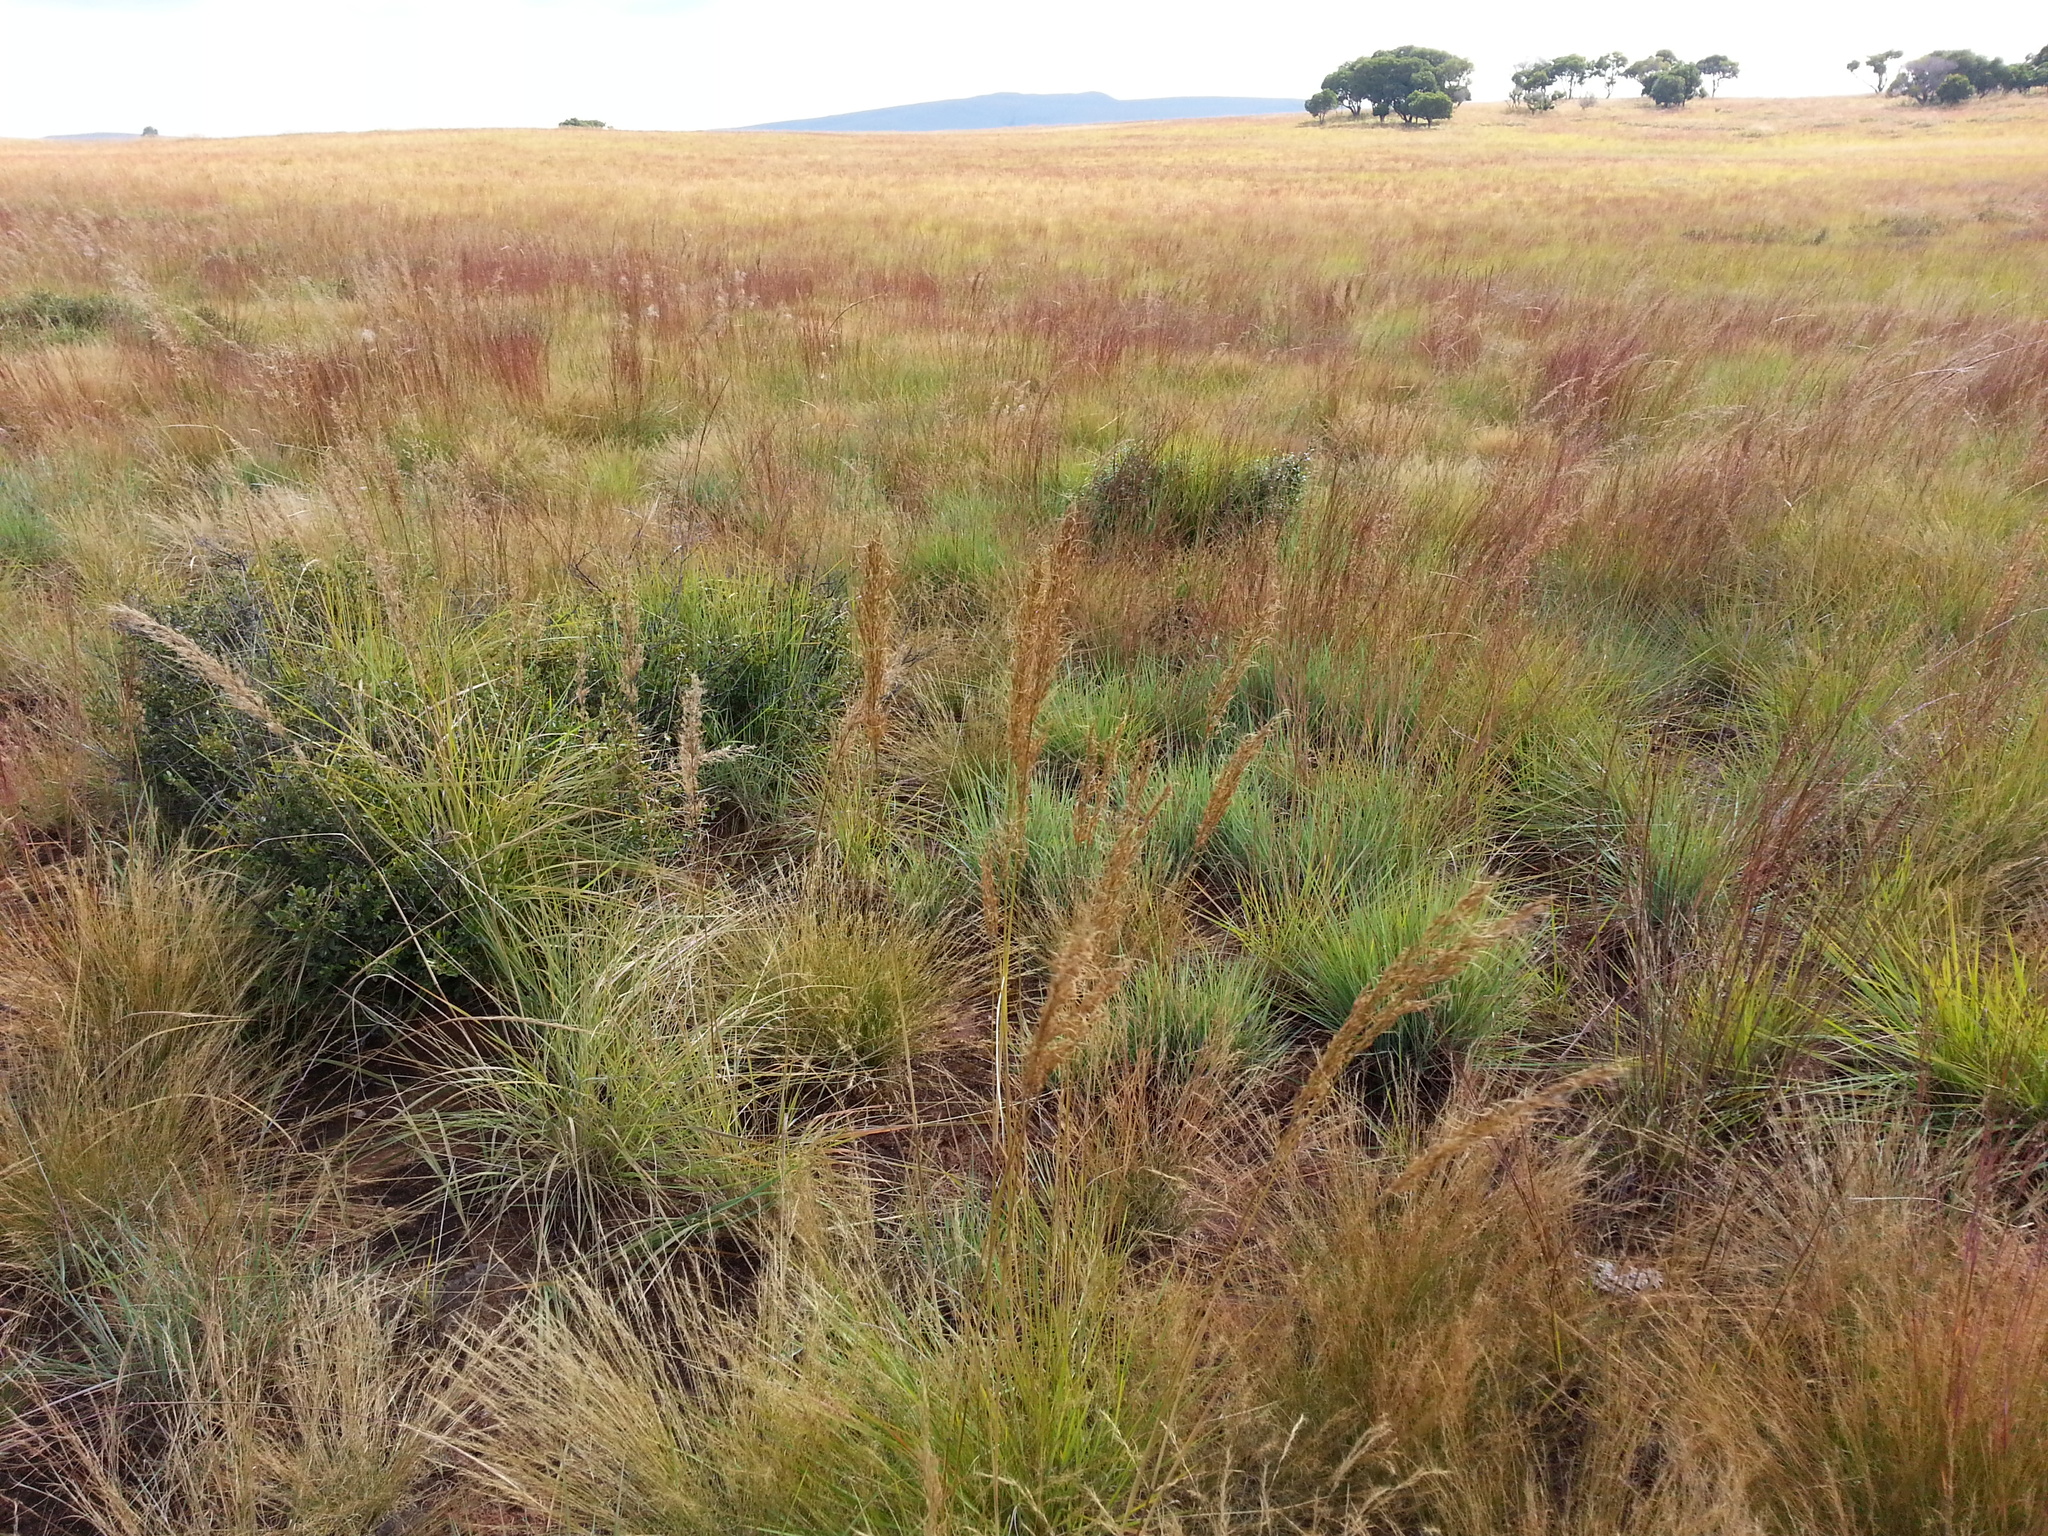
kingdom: Plantae
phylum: Tracheophyta
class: Liliopsida
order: Poales
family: Poaceae
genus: Loudetia
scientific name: Loudetia simplex
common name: Common russet grass
